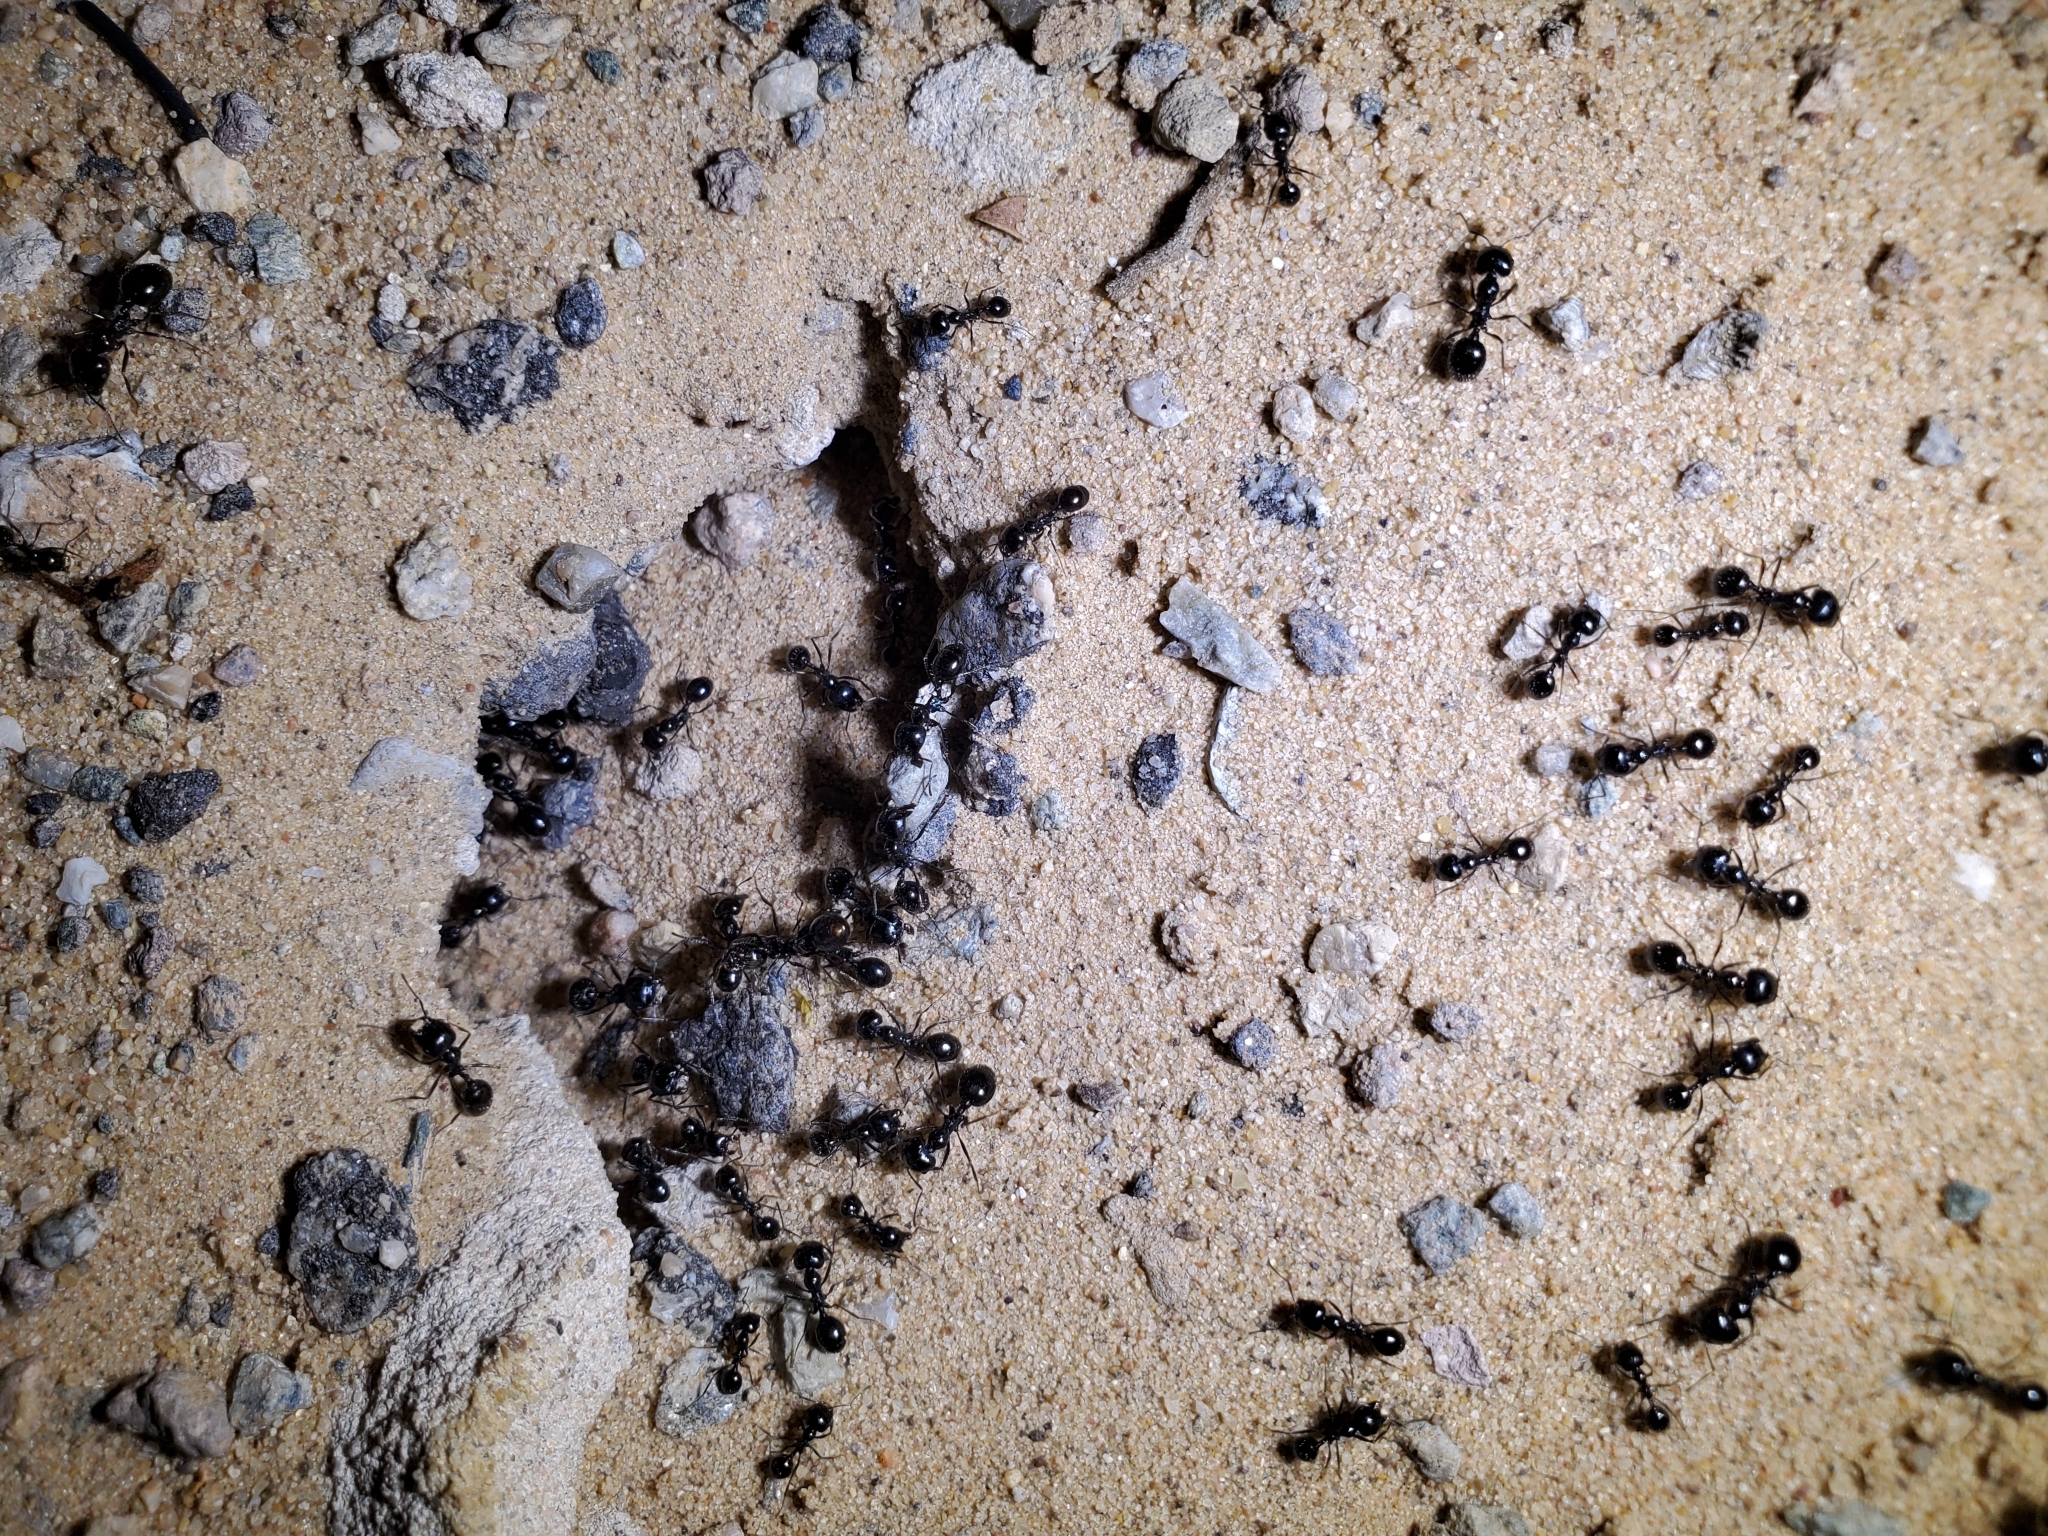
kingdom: Animalia
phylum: Arthropoda
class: Insecta
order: Hymenoptera
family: Formicidae
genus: Messor
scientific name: Messor pergandei
